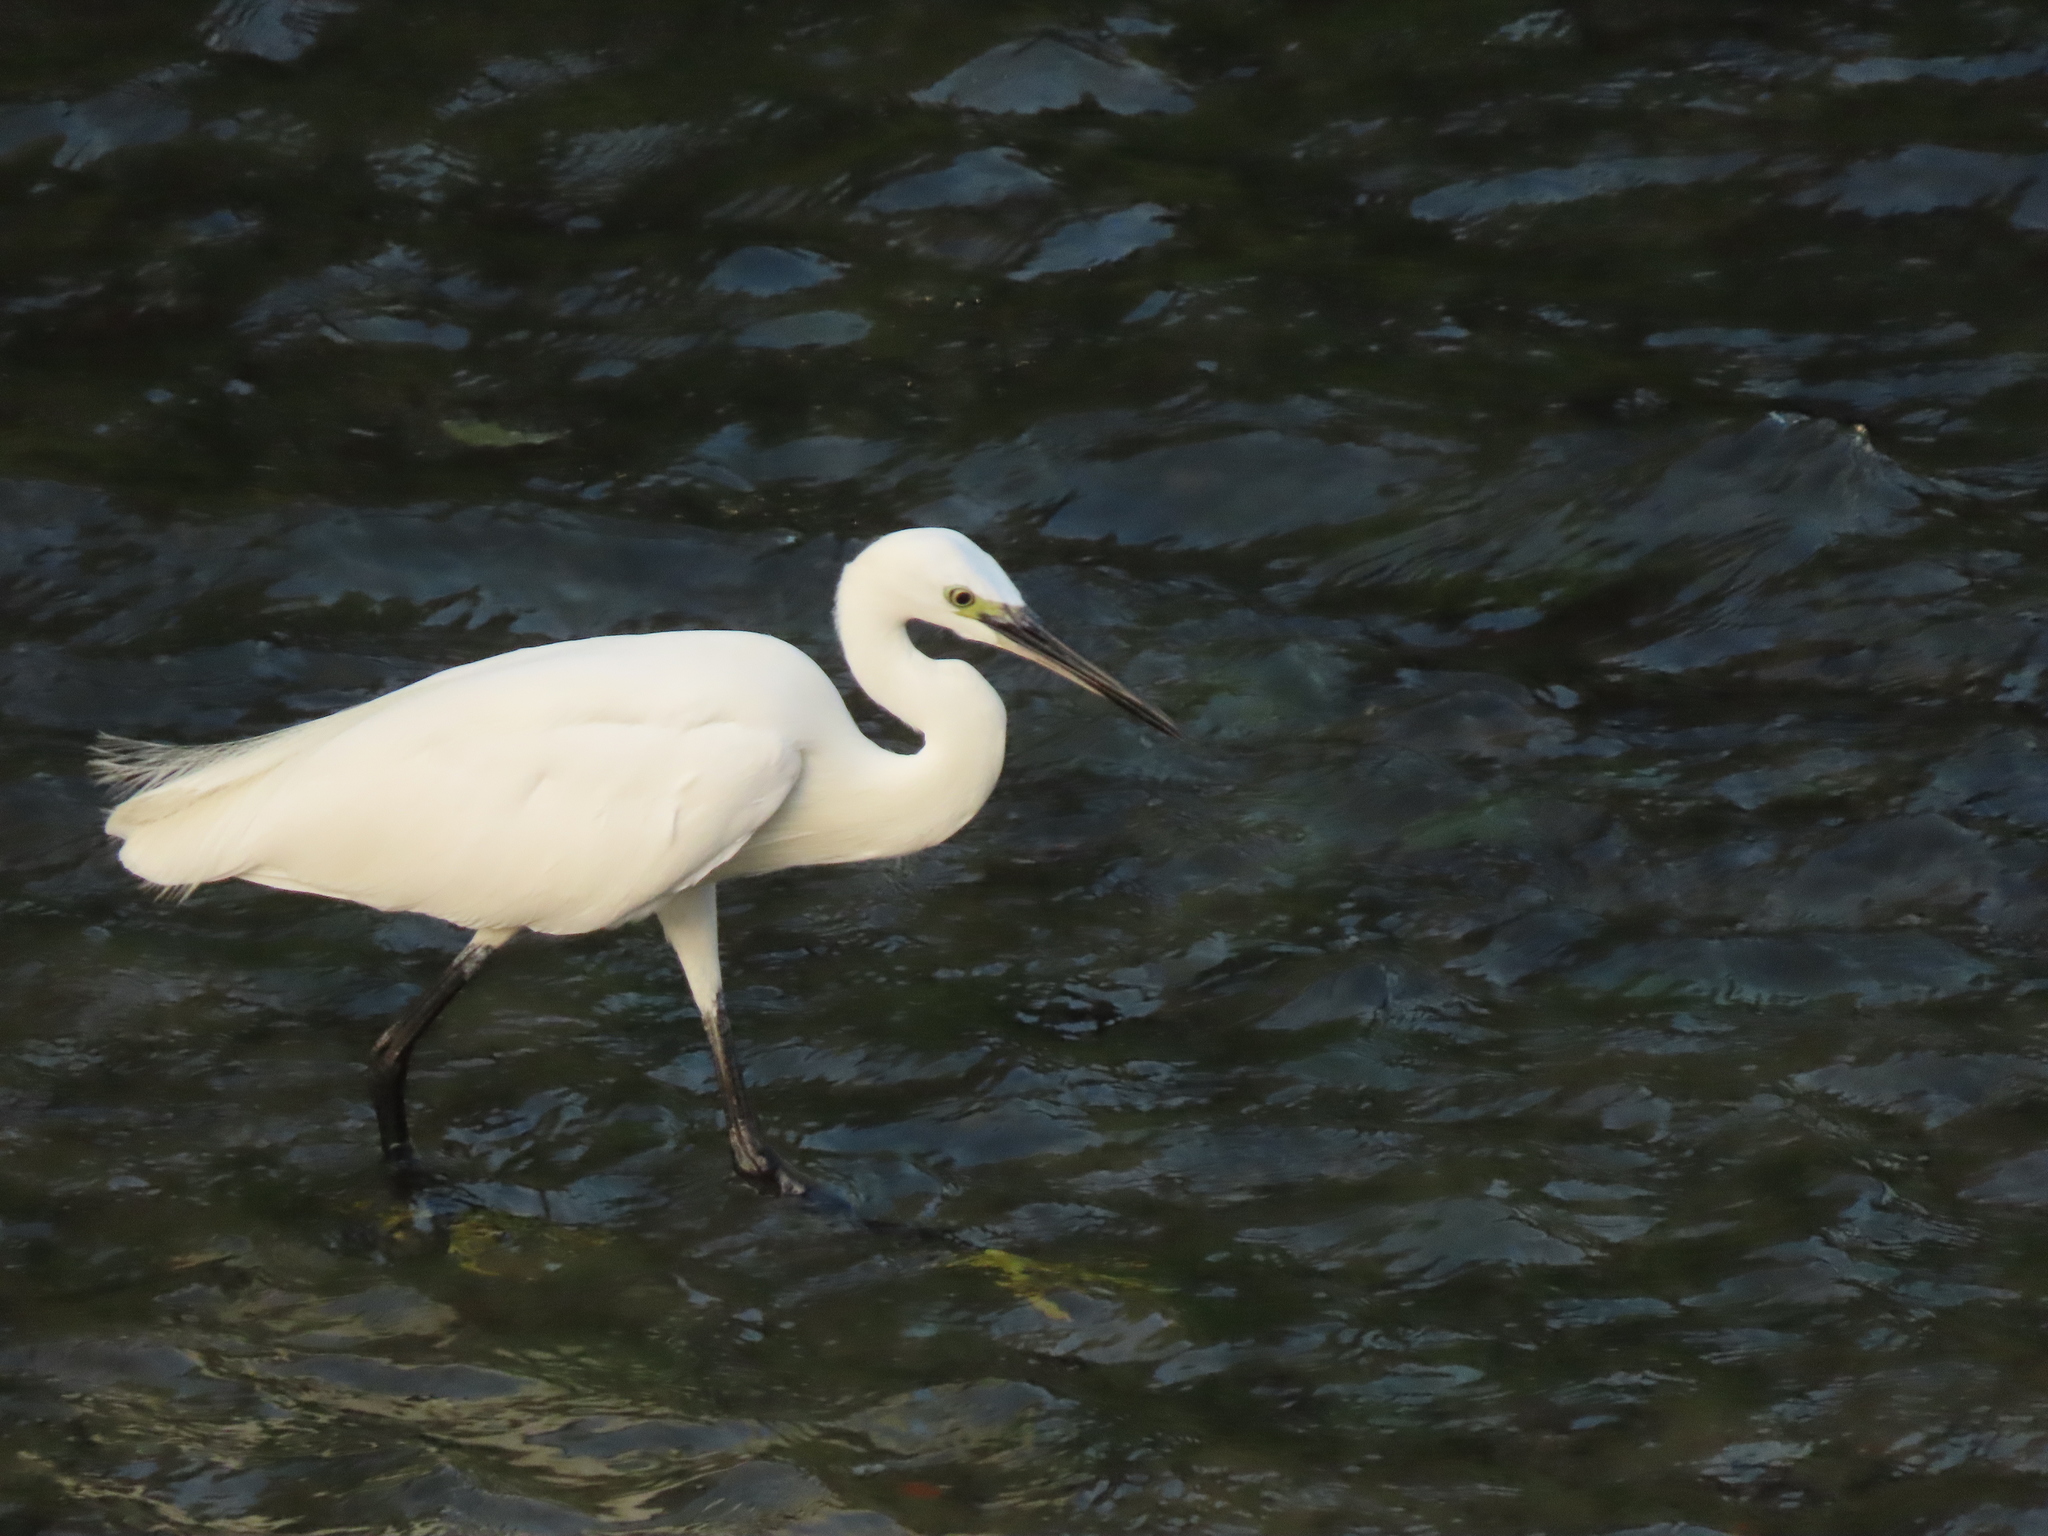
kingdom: Animalia
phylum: Chordata
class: Aves
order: Pelecaniformes
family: Ardeidae
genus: Egretta
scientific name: Egretta garzetta
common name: Little egret
